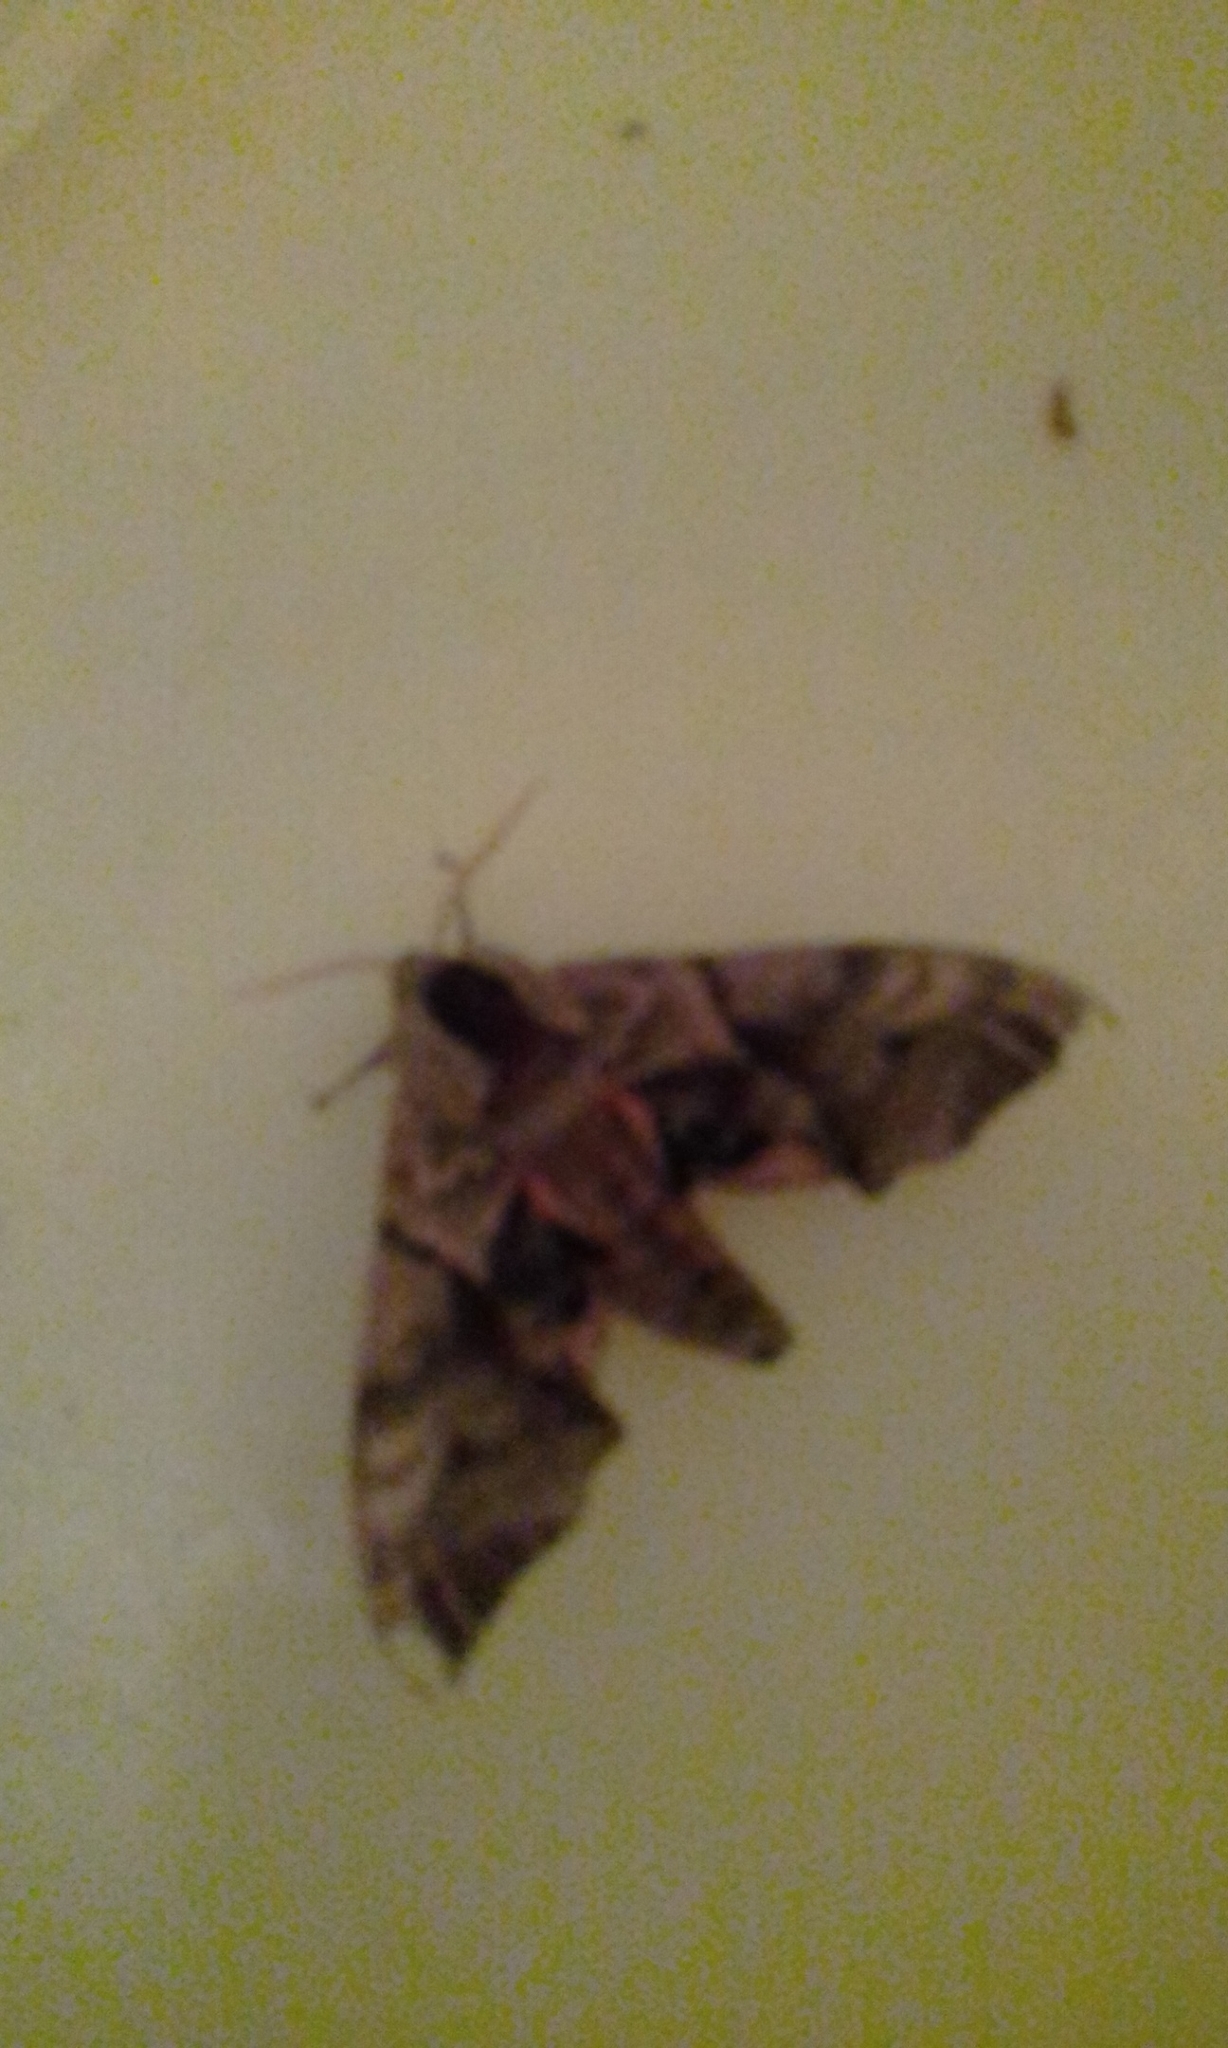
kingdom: Animalia
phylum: Arthropoda
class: Insecta
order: Lepidoptera
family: Sphingidae
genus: Smerinthus
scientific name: Smerinthus ocellata
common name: Eyed hawk-moth
